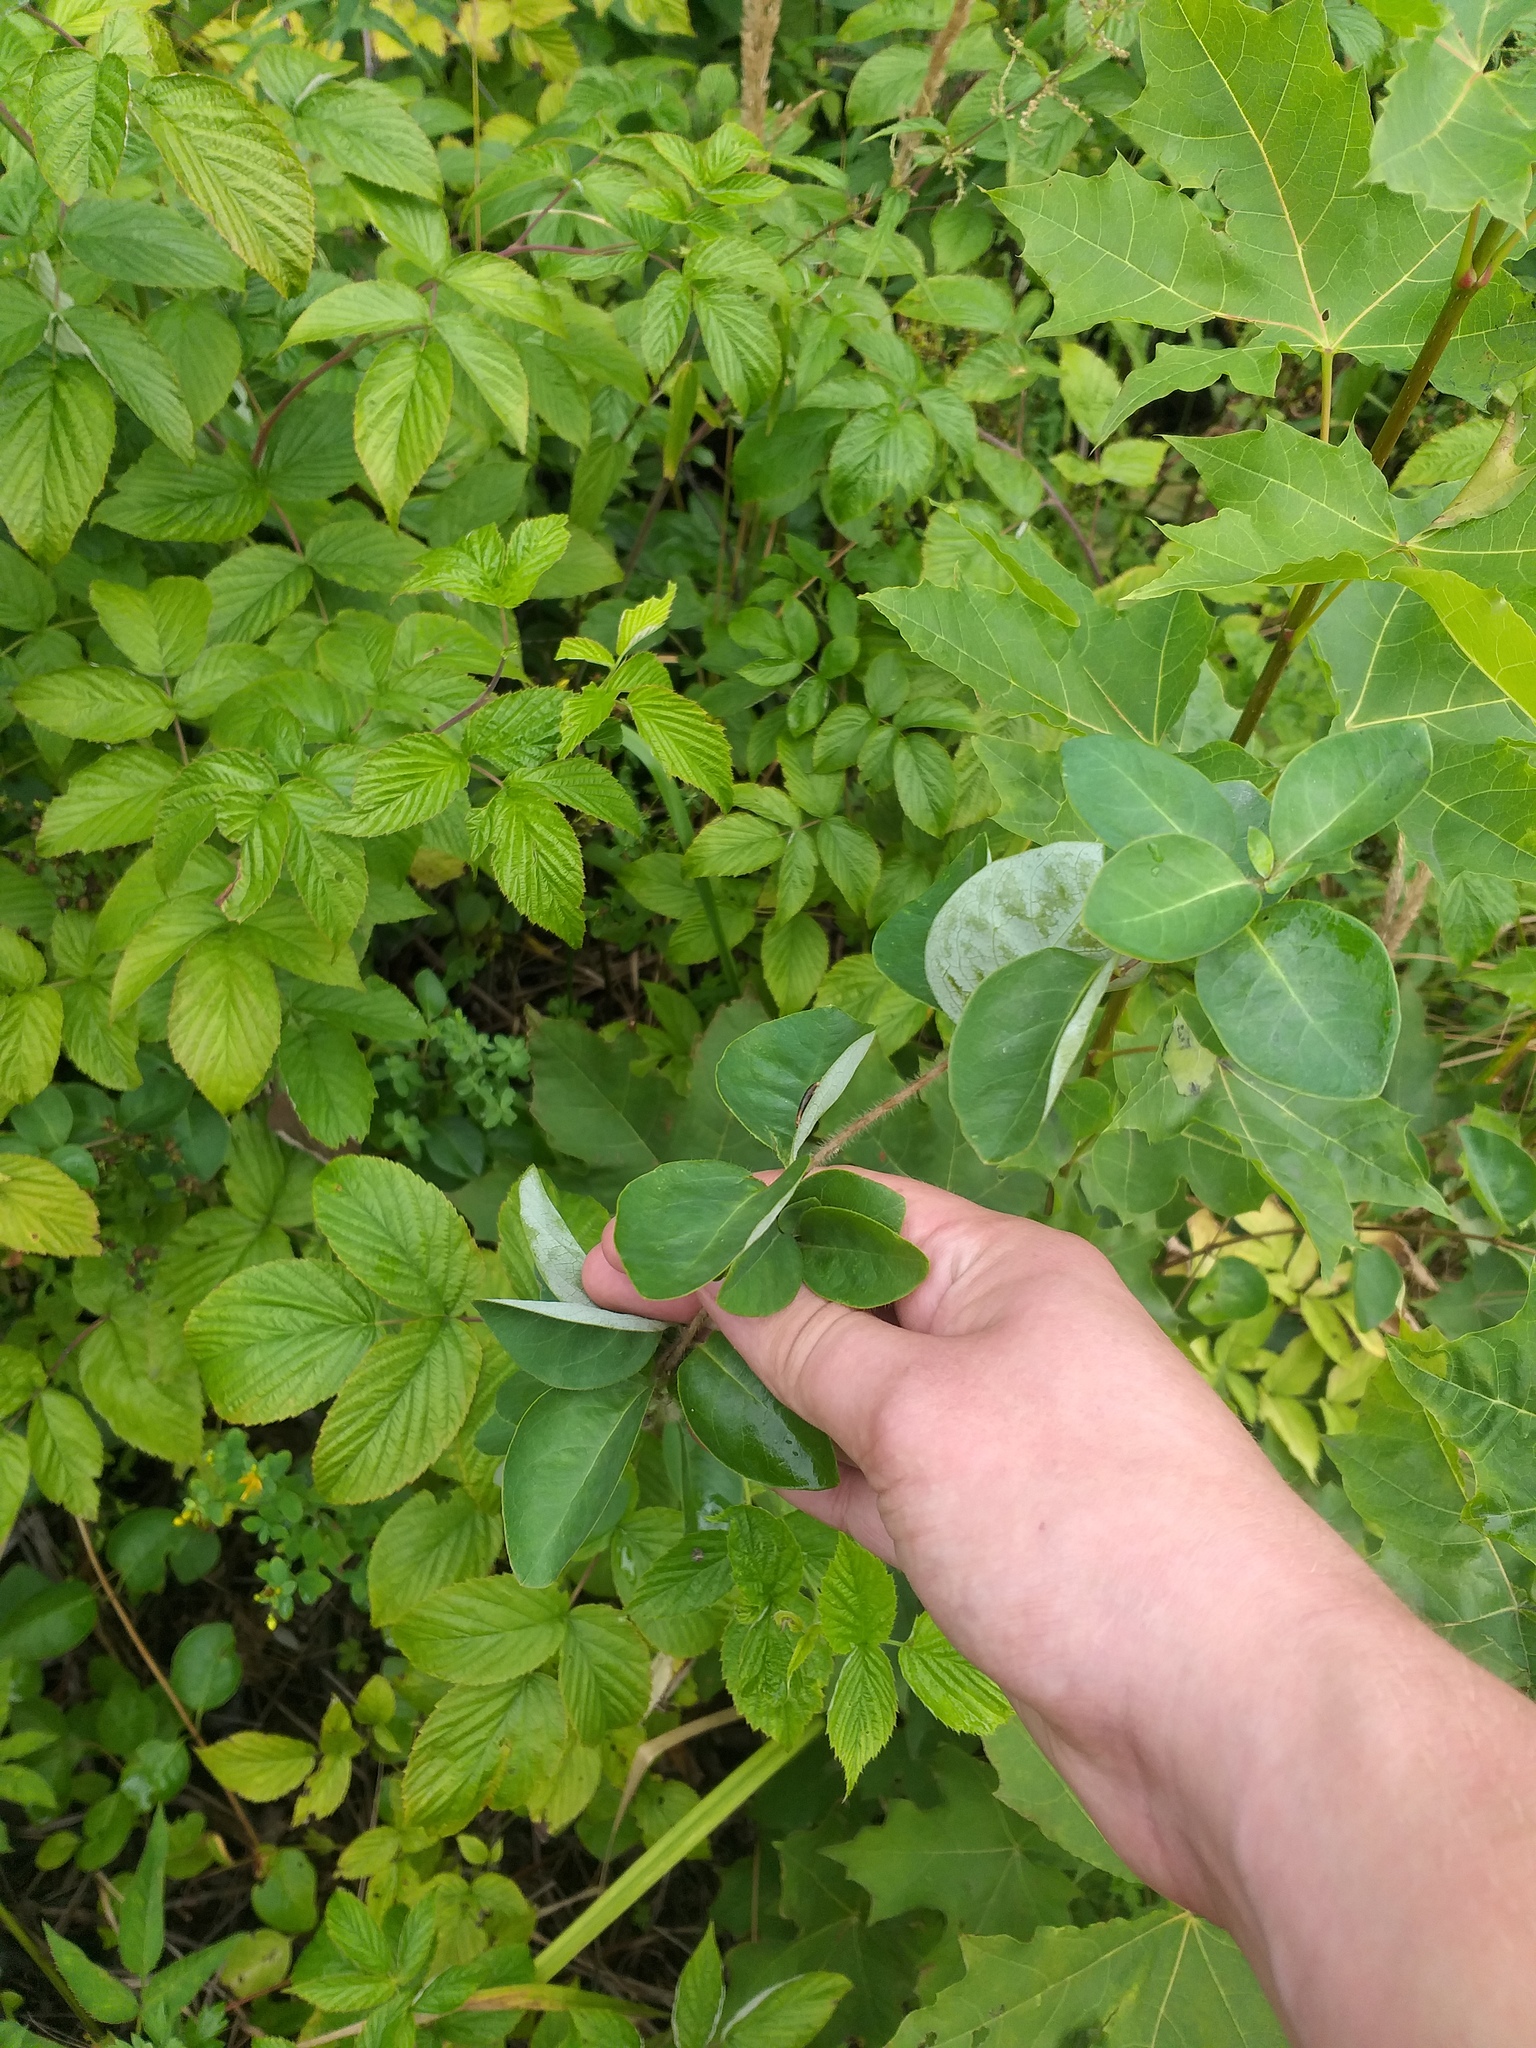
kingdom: Plantae
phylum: Tracheophyta
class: Magnoliopsida
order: Dipsacales
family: Caprifoliaceae
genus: Lonicera
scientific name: Lonicera caprifolium
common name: Perfoliate honeysuckle
